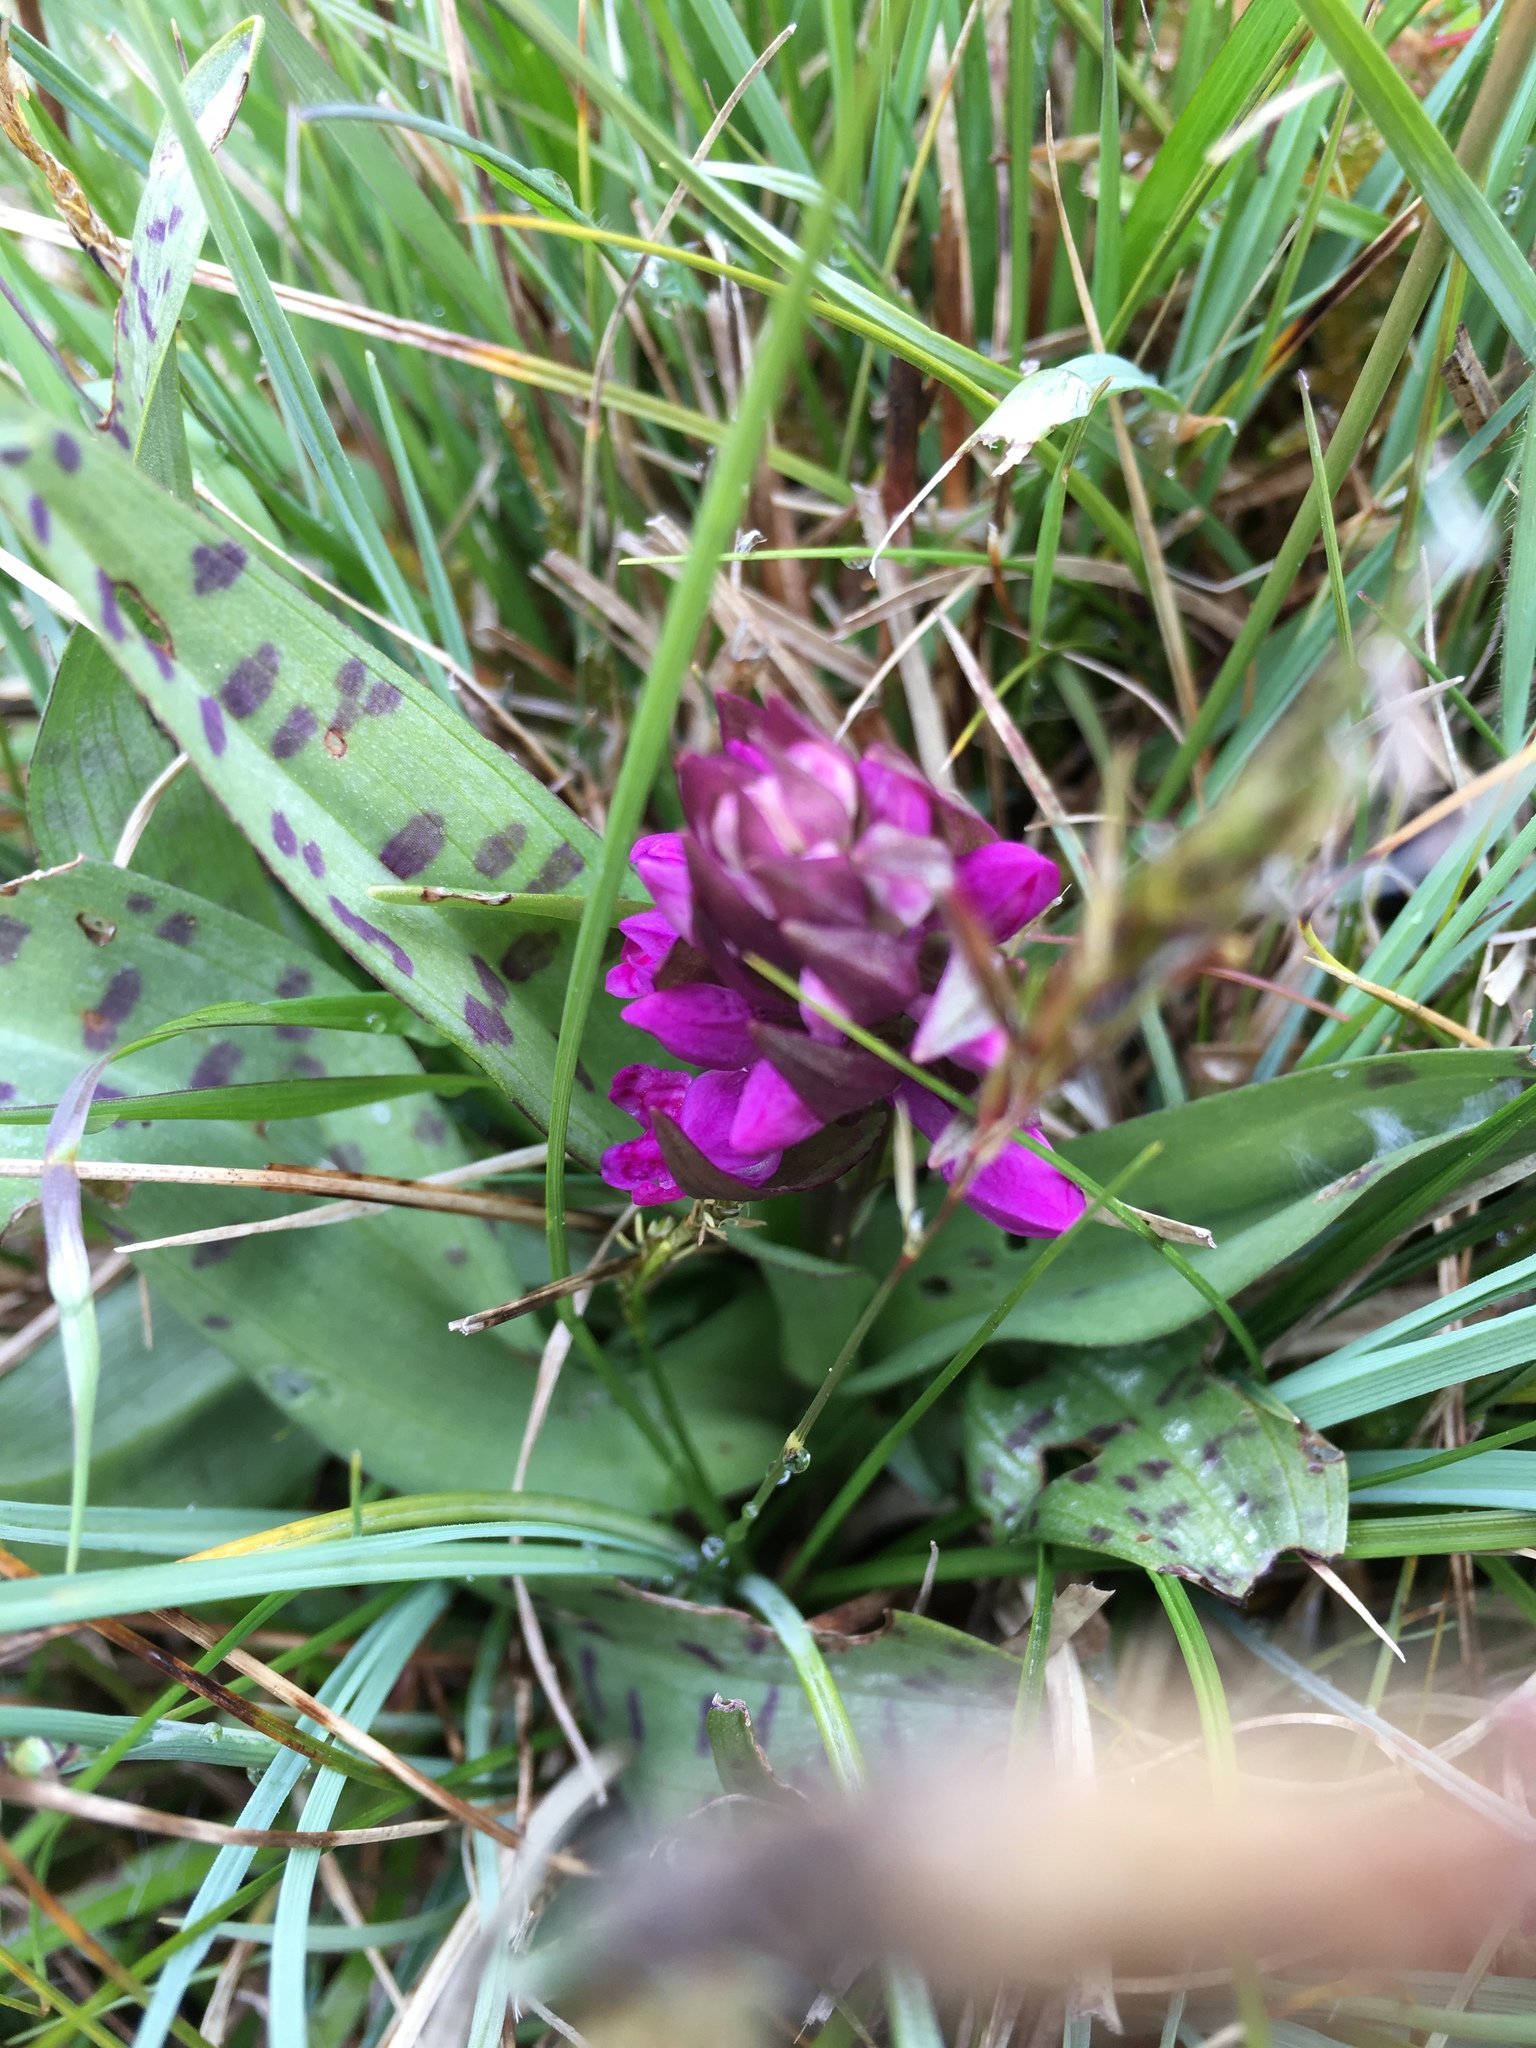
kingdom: Plantae
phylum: Tracheophyta
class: Liliopsida
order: Asparagales
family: Orchidaceae
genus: Dactylorhiza
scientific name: Dactylorhiza majalis
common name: Marsh orchid
